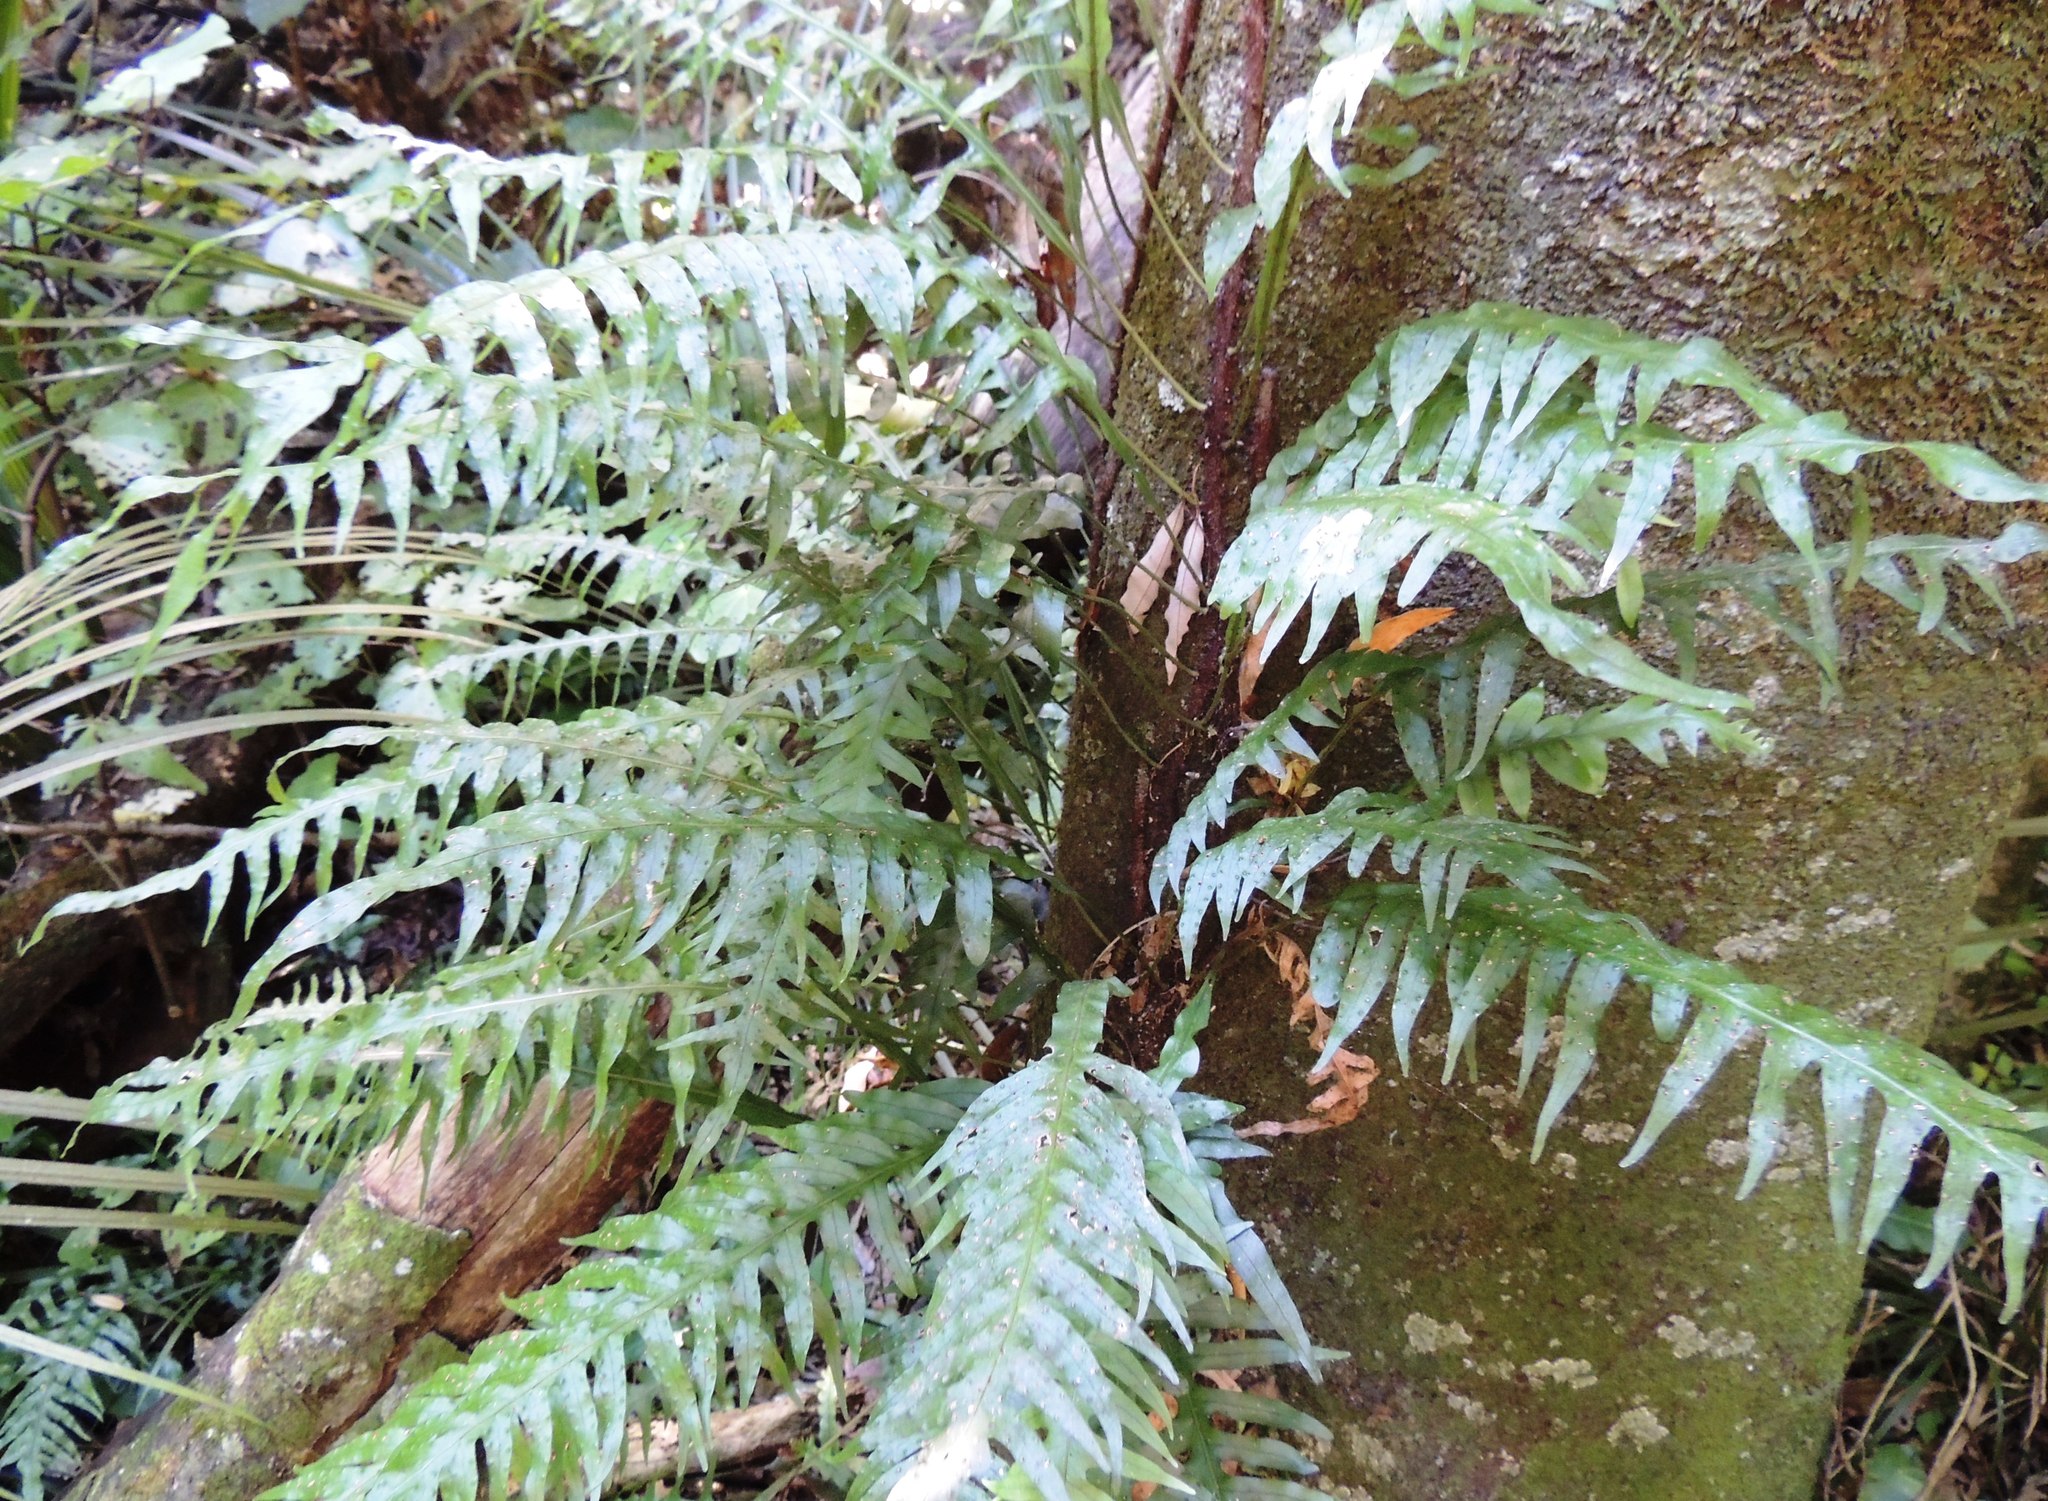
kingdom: Plantae
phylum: Tracheophyta
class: Polypodiopsida
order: Polypodiales
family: Polypodiaceae
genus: Lecanopteris
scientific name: Lecanopteris scandens
